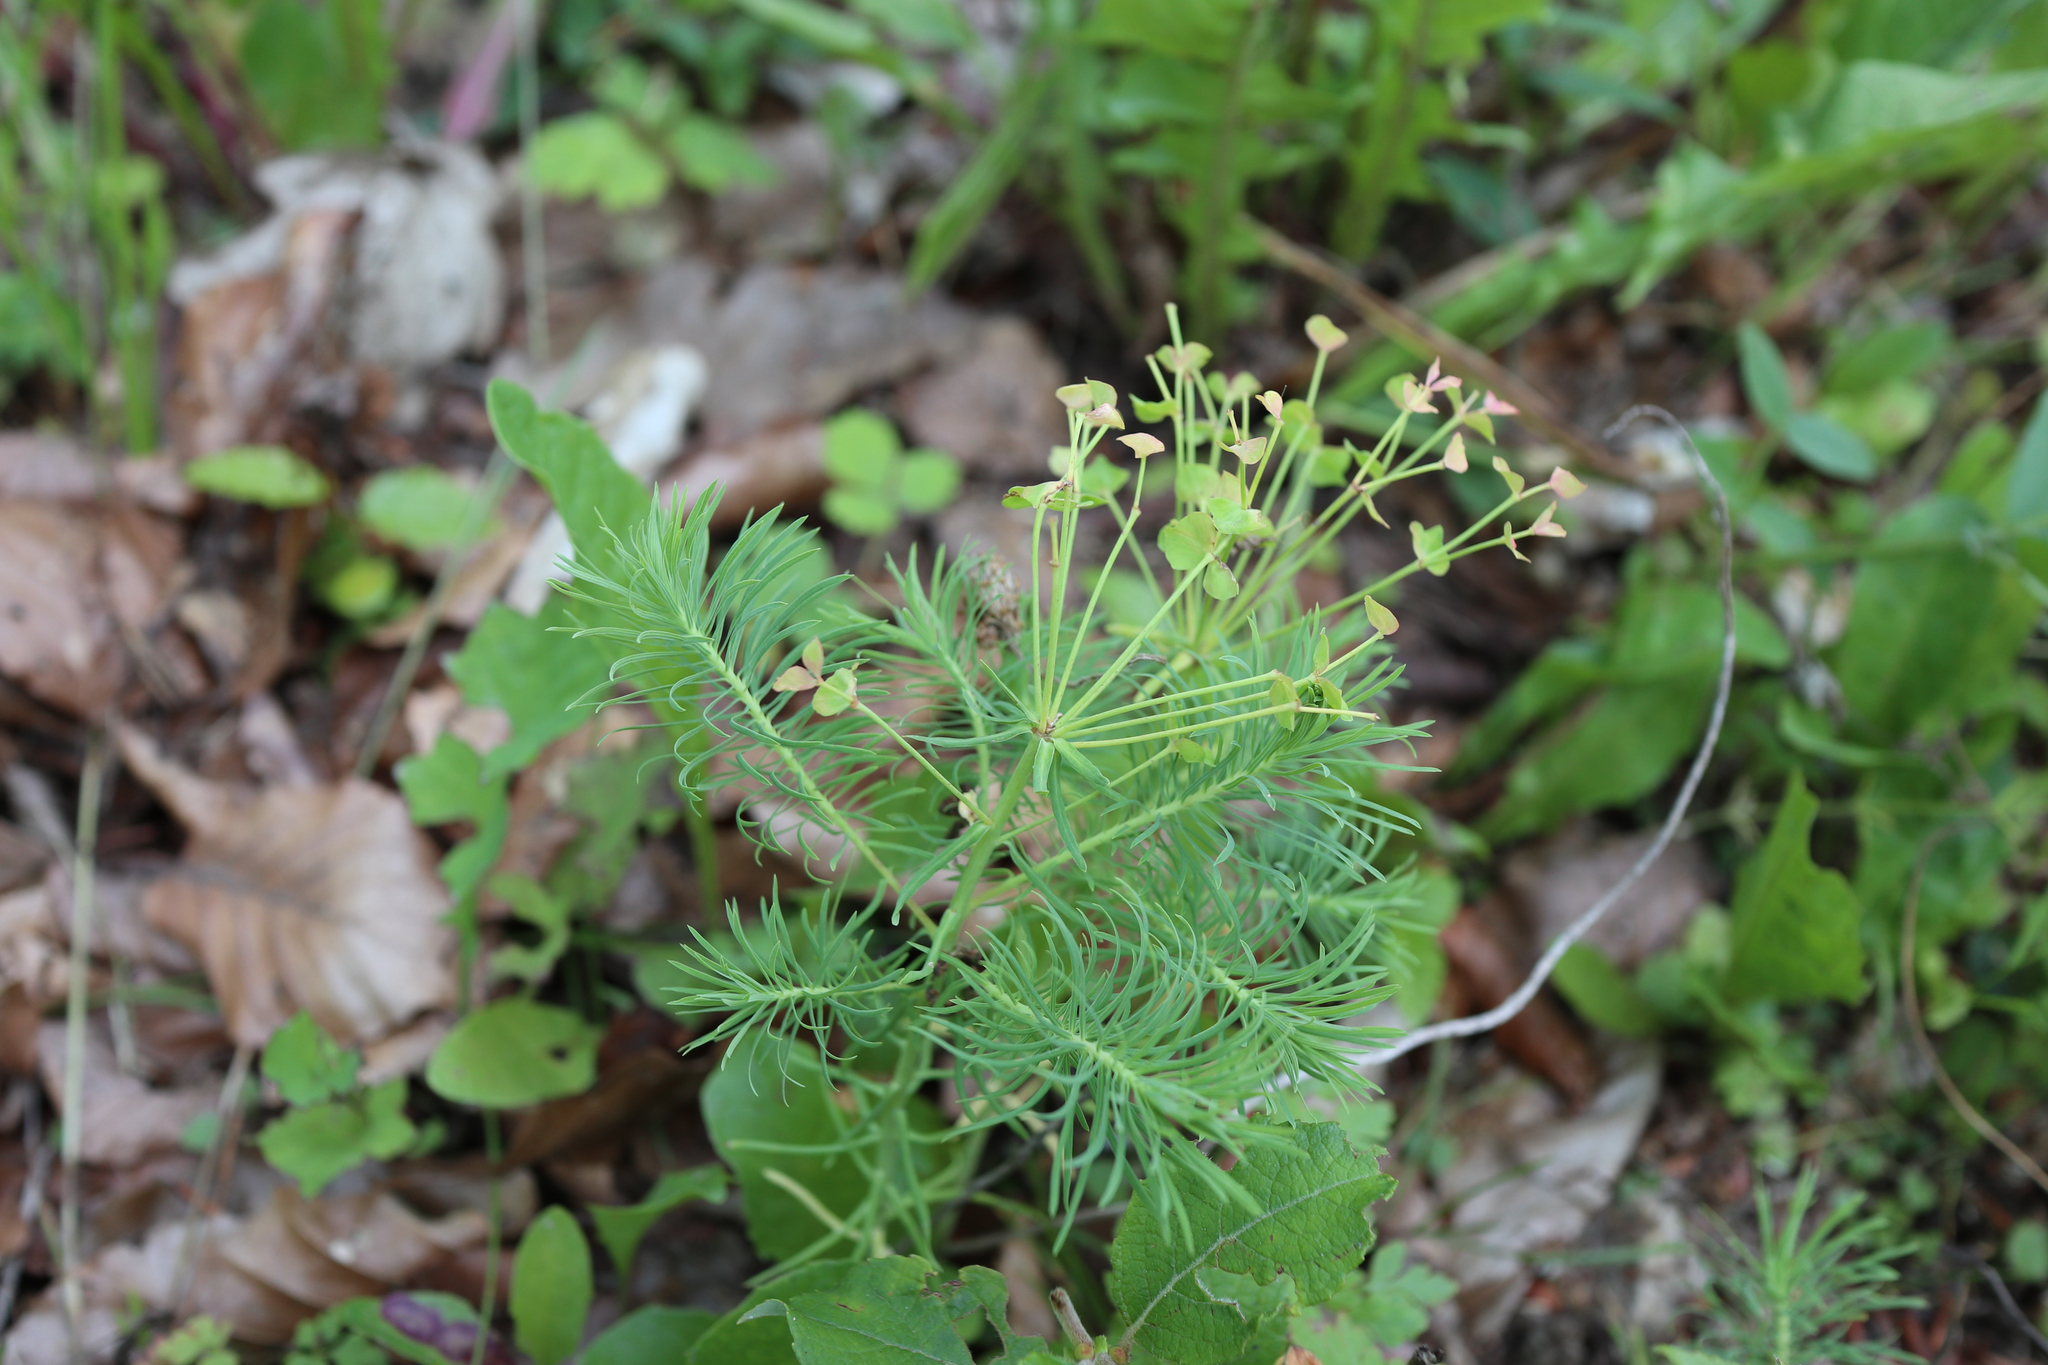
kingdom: Plantae
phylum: Tracheophyta
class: Magnoliopsida
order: Malpighiales
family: Euphorbiaceae
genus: Euphorbia
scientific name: Euphorbia cyparissias
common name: Cypress spurge
